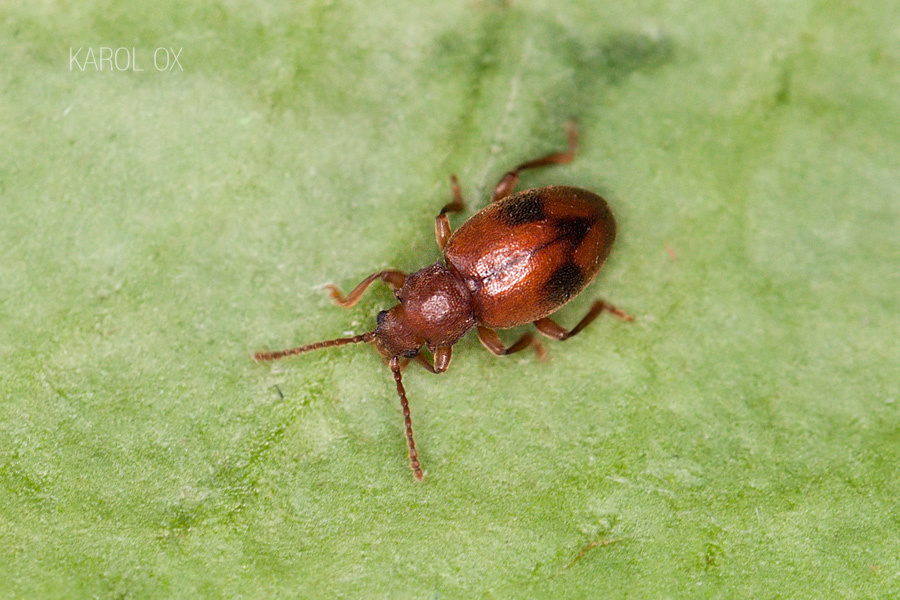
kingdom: Animalia
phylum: Arthropoda
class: Insecta
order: Coleoptera
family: Endomychidae
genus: Dapsa
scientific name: Dapsa denticollis
